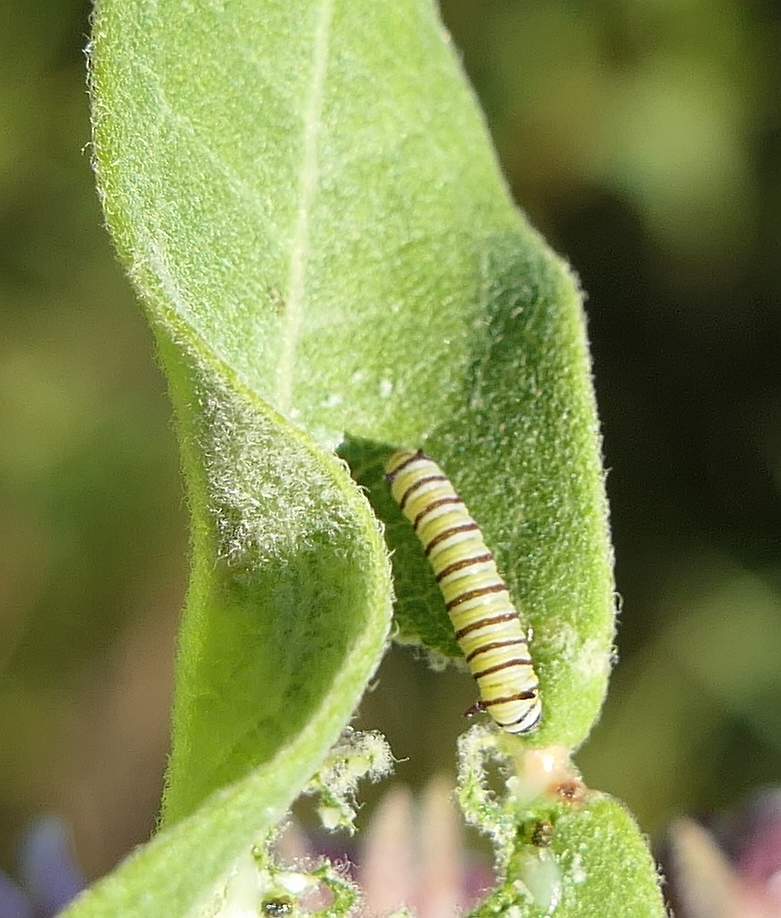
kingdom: Animalia
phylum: Arthropoda
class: Insecta
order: Lepidoptera
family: Nymphalidae
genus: Danaus
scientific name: Danaus plexippus
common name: Monarch
